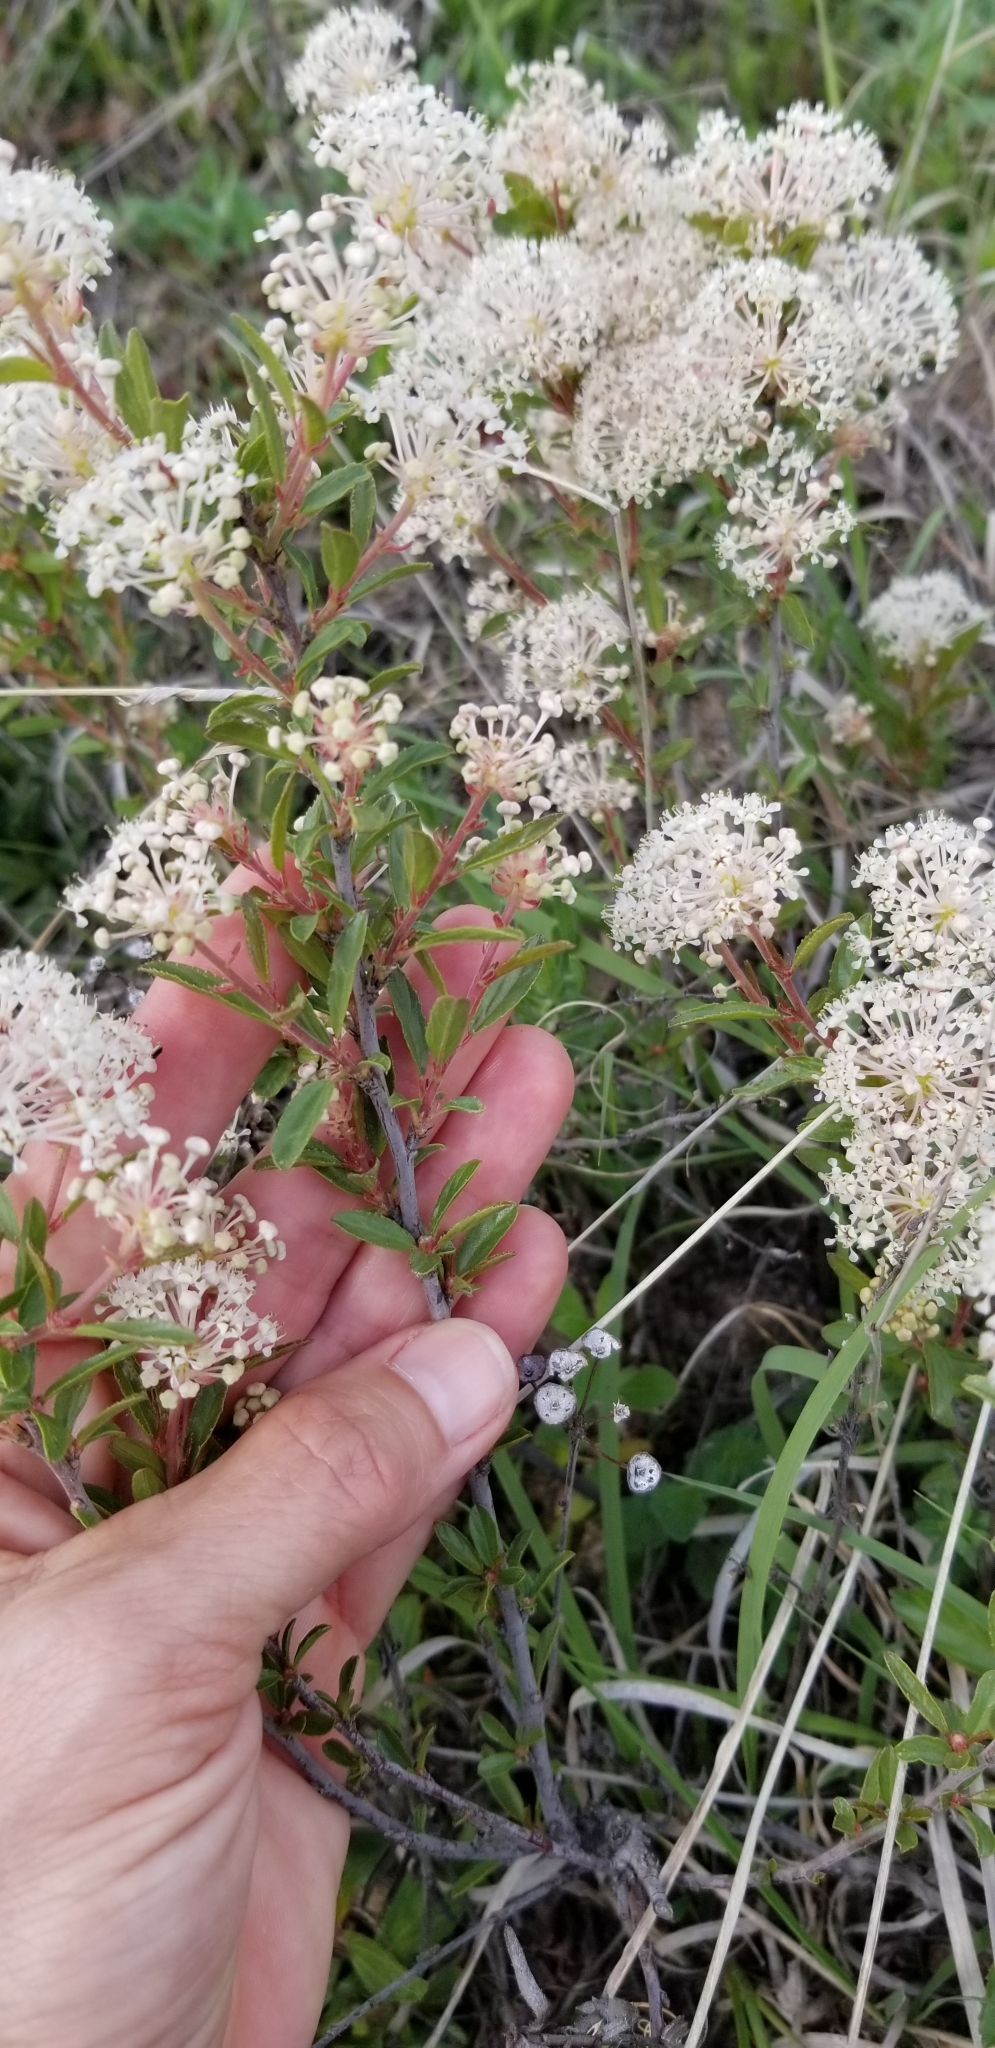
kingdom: Plantae
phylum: Tracheophyta
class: Magnoliopsida
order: Rosales
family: Rhamnaceae
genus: Ceanothus
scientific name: Ceanothus herbaceus
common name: Inland ceanothus
